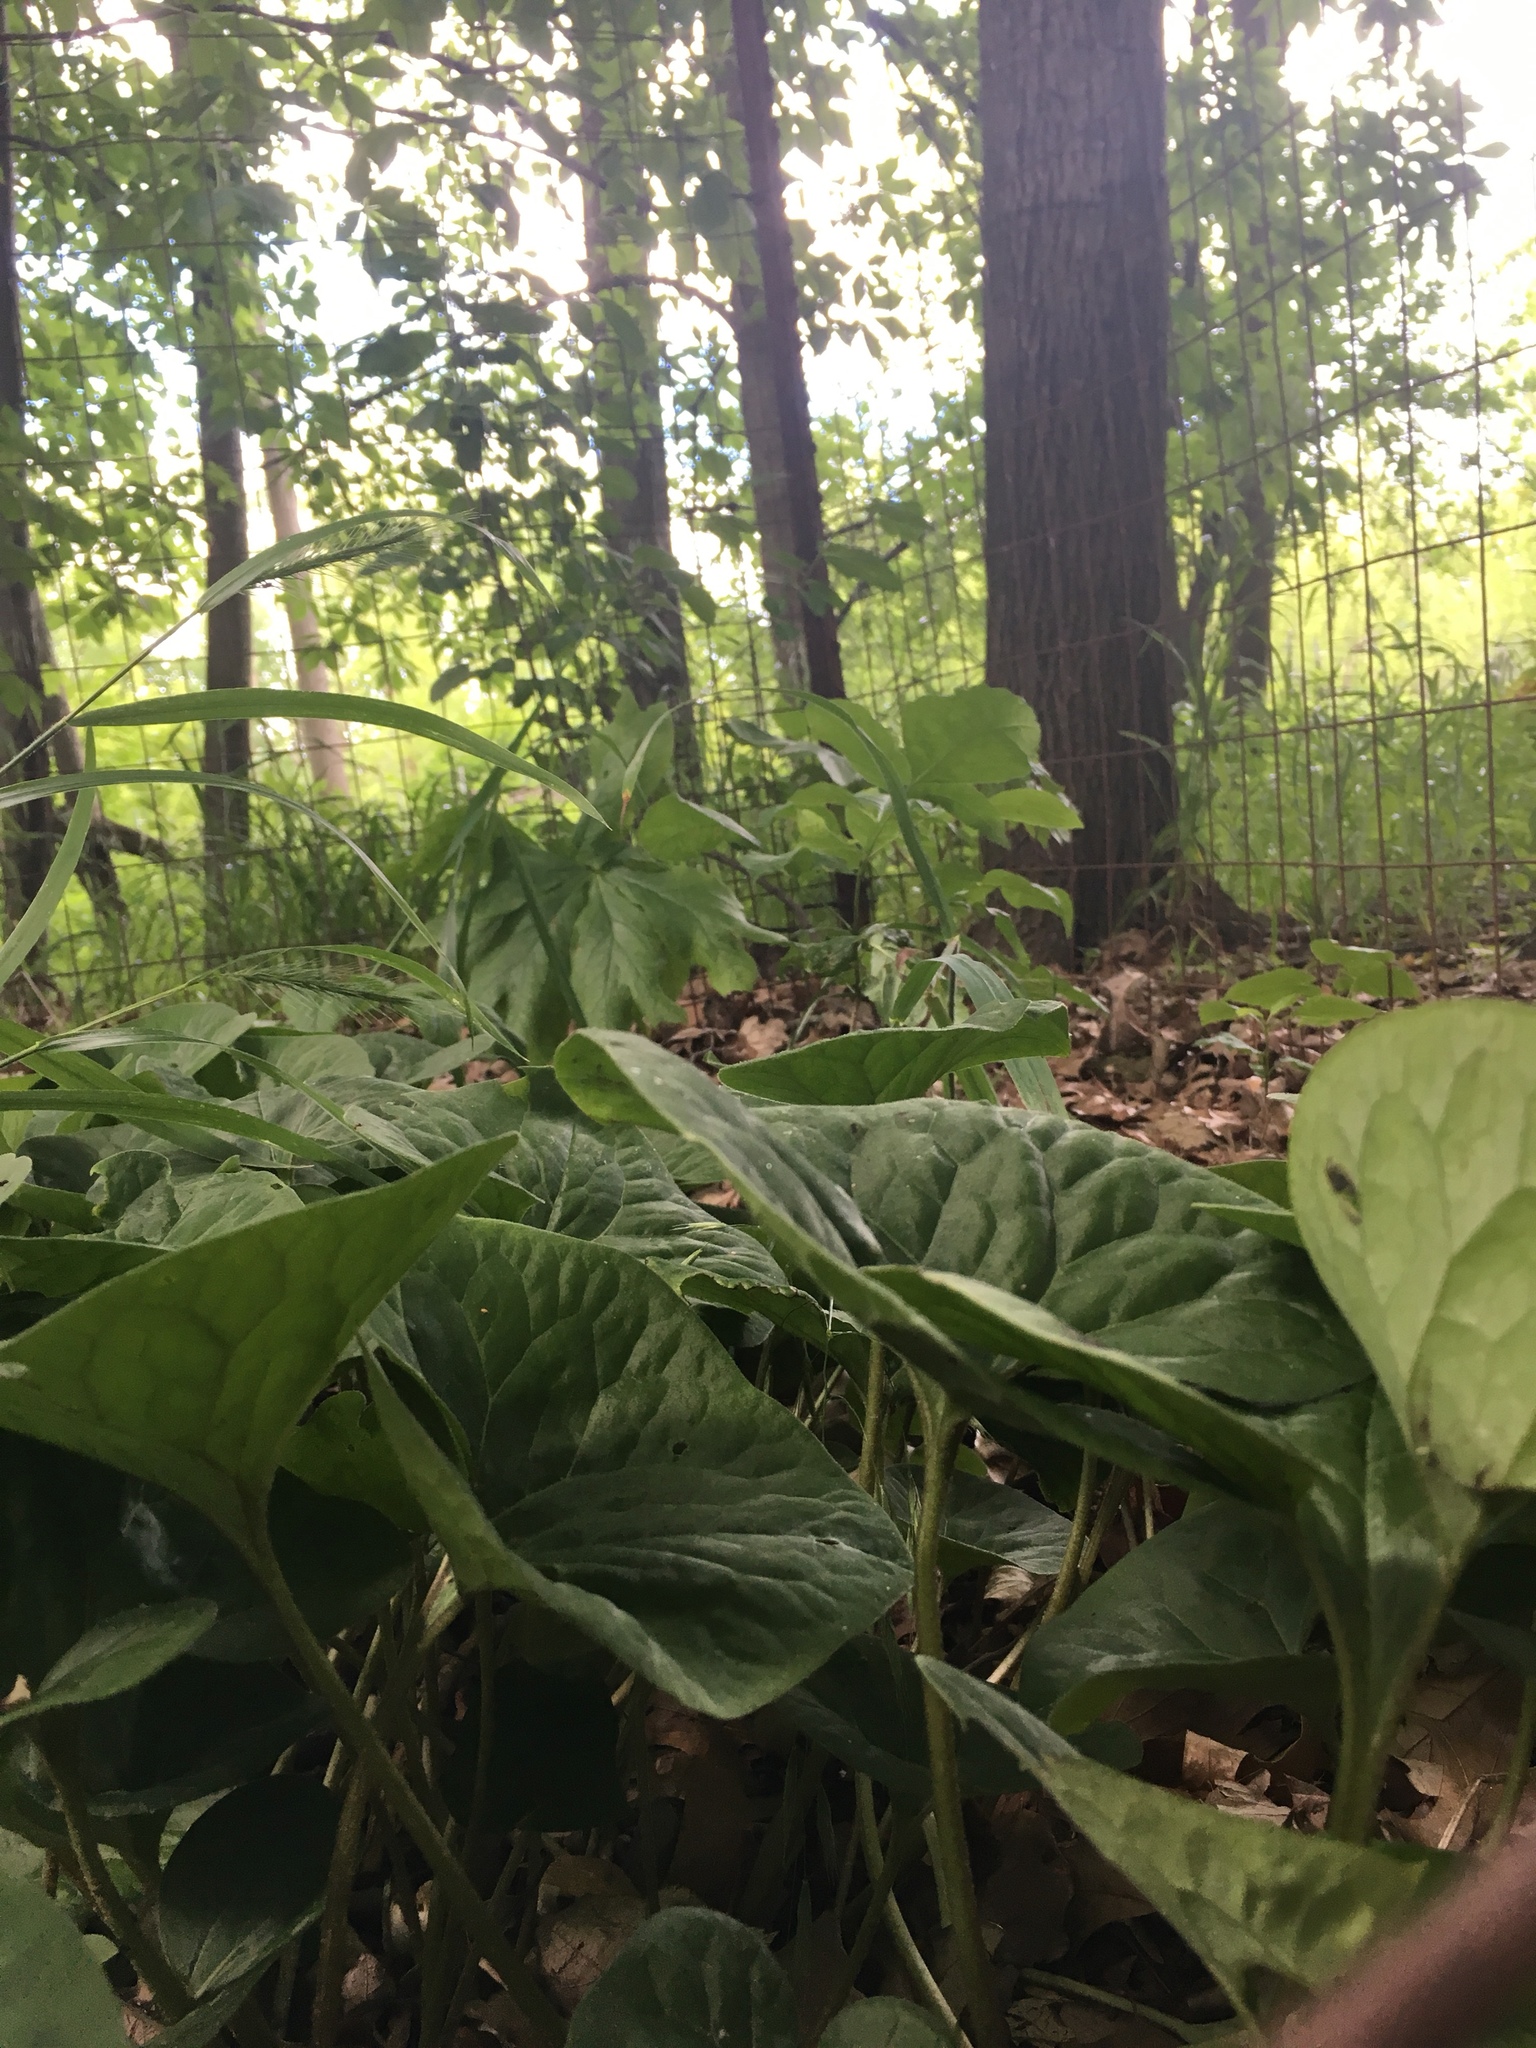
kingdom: Plantae
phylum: Tracheophyta
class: Magnoliopsida
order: Piperales
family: Aristolochiaceae
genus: Asarum
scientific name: Asarum canadense
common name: Wild ginger
